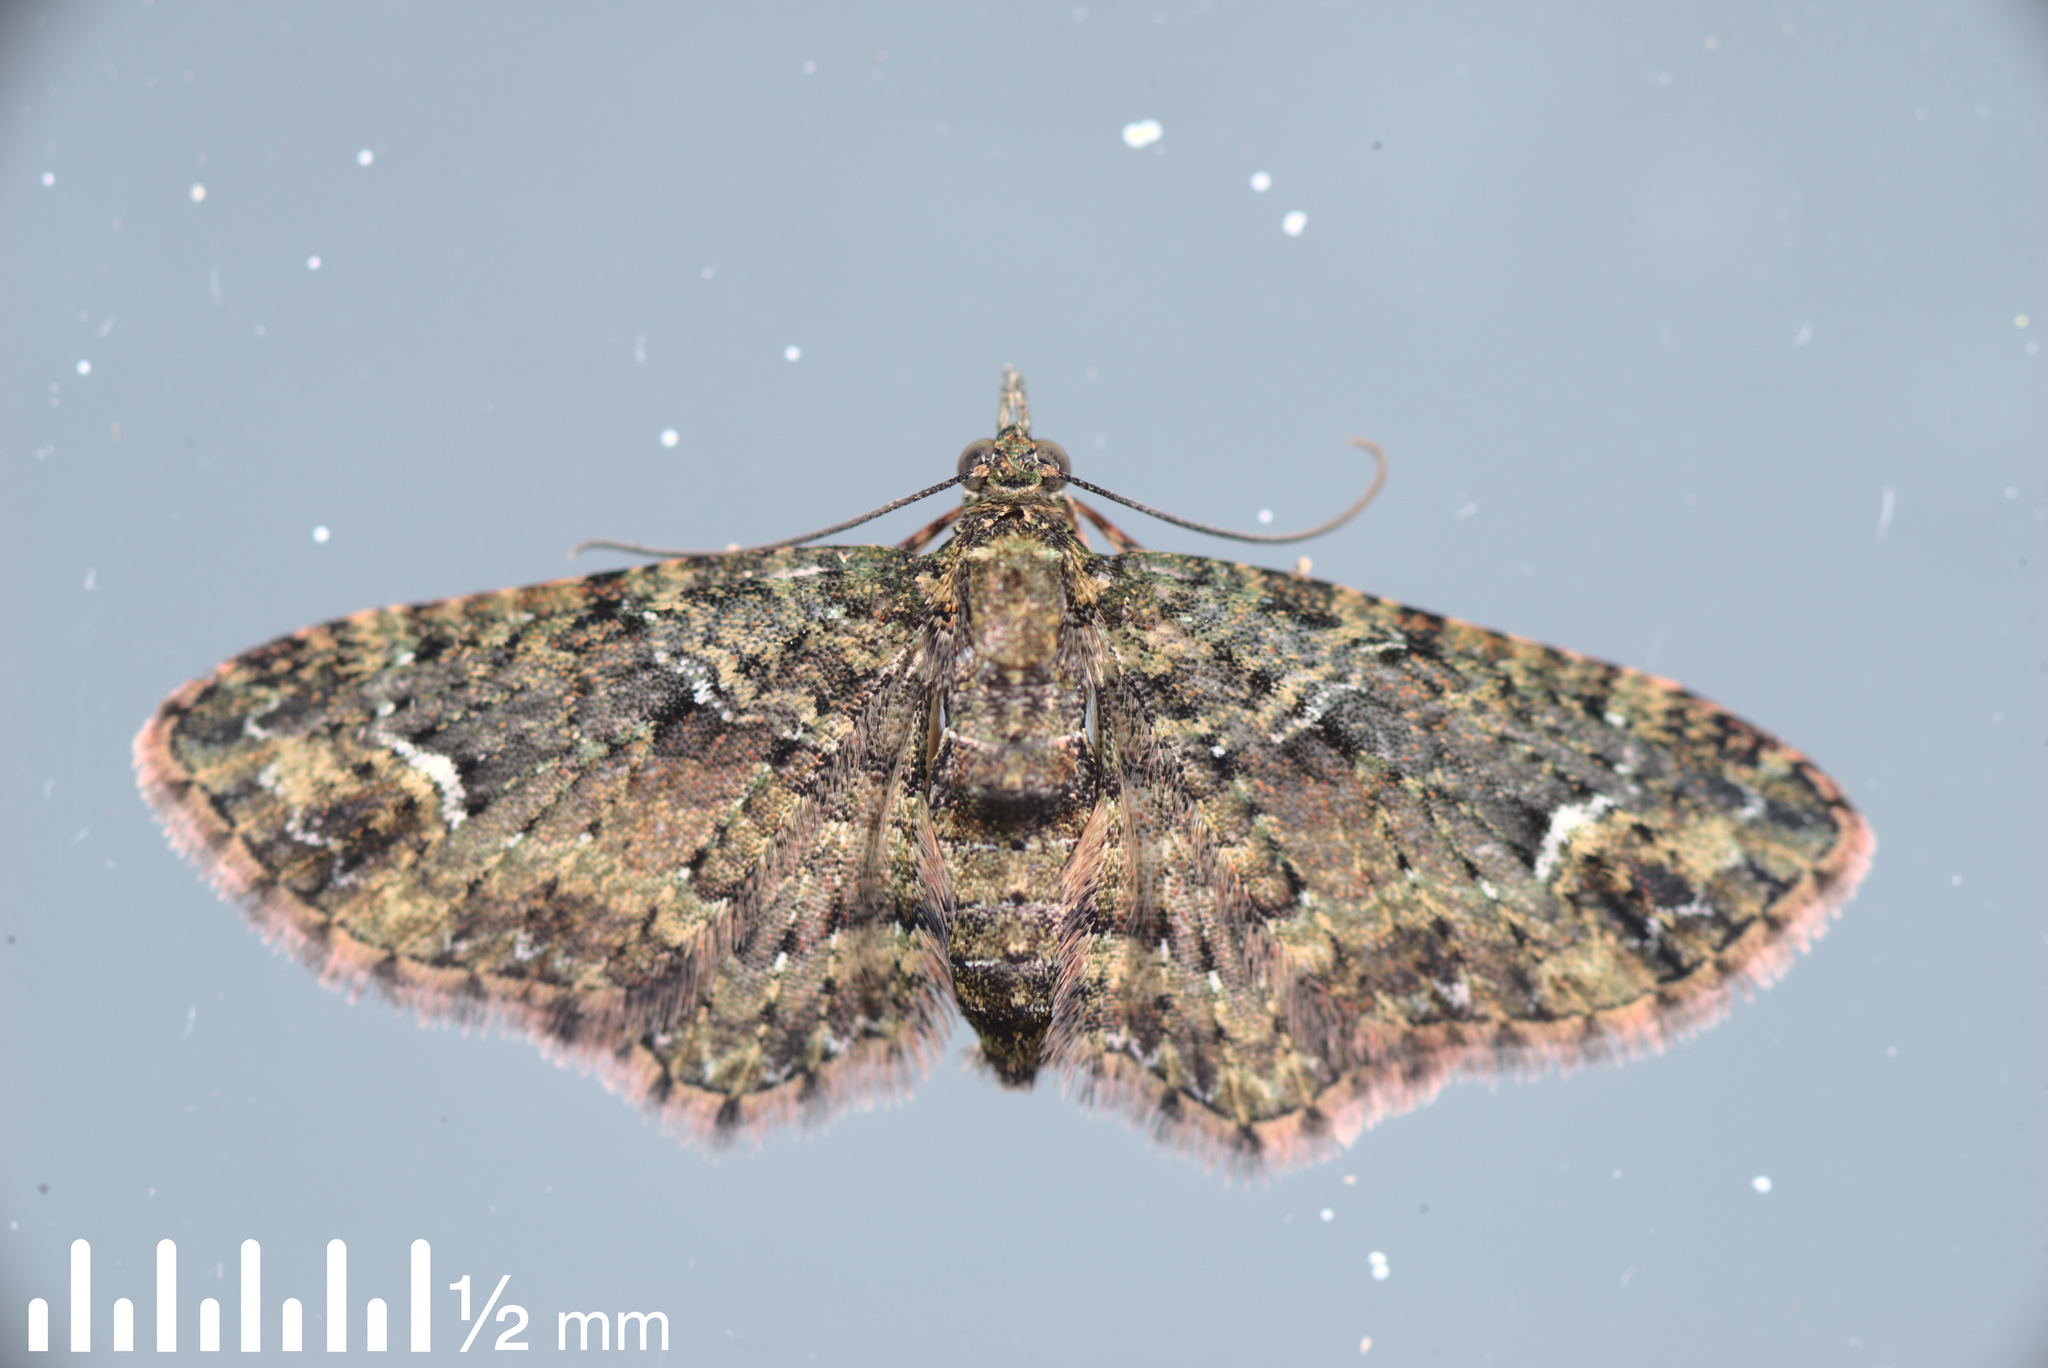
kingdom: Animalia
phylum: Arthropoda
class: Insecta
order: Lepidoptera
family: Geometridae
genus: Pasiphilodes
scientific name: Pasiphilodes testulata
